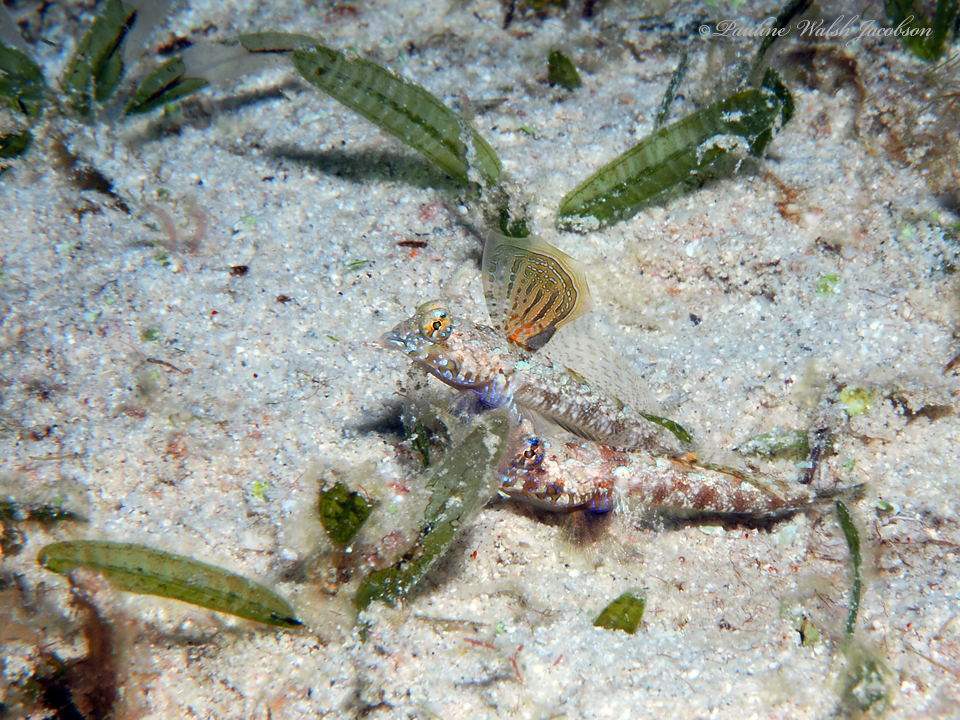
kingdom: Animalia
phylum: Chordata
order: Perciformes
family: Callionymidae
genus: Callionymus
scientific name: Callionymus bairdi
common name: Lancer dragonet
